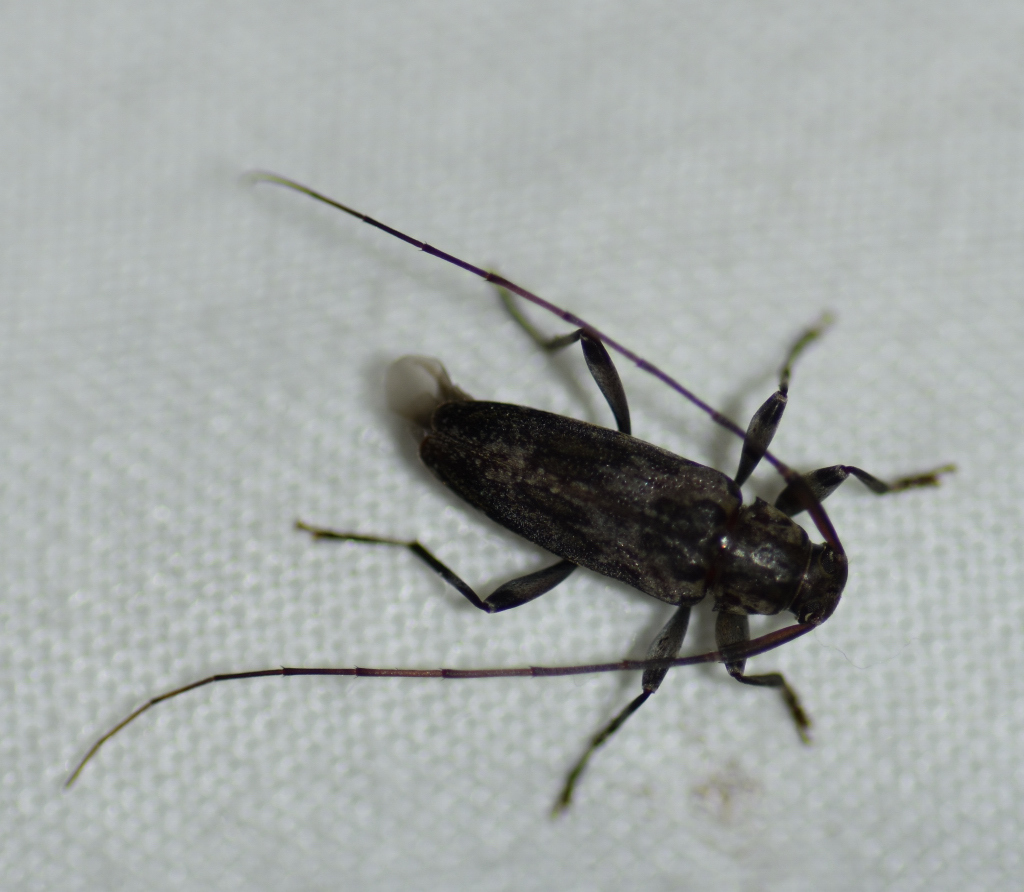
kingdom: Animalia
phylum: Arthropoda
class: Insecta
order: Coleoptera
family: Cerambycidae
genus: Lepturges
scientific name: Lepturges angulatus
